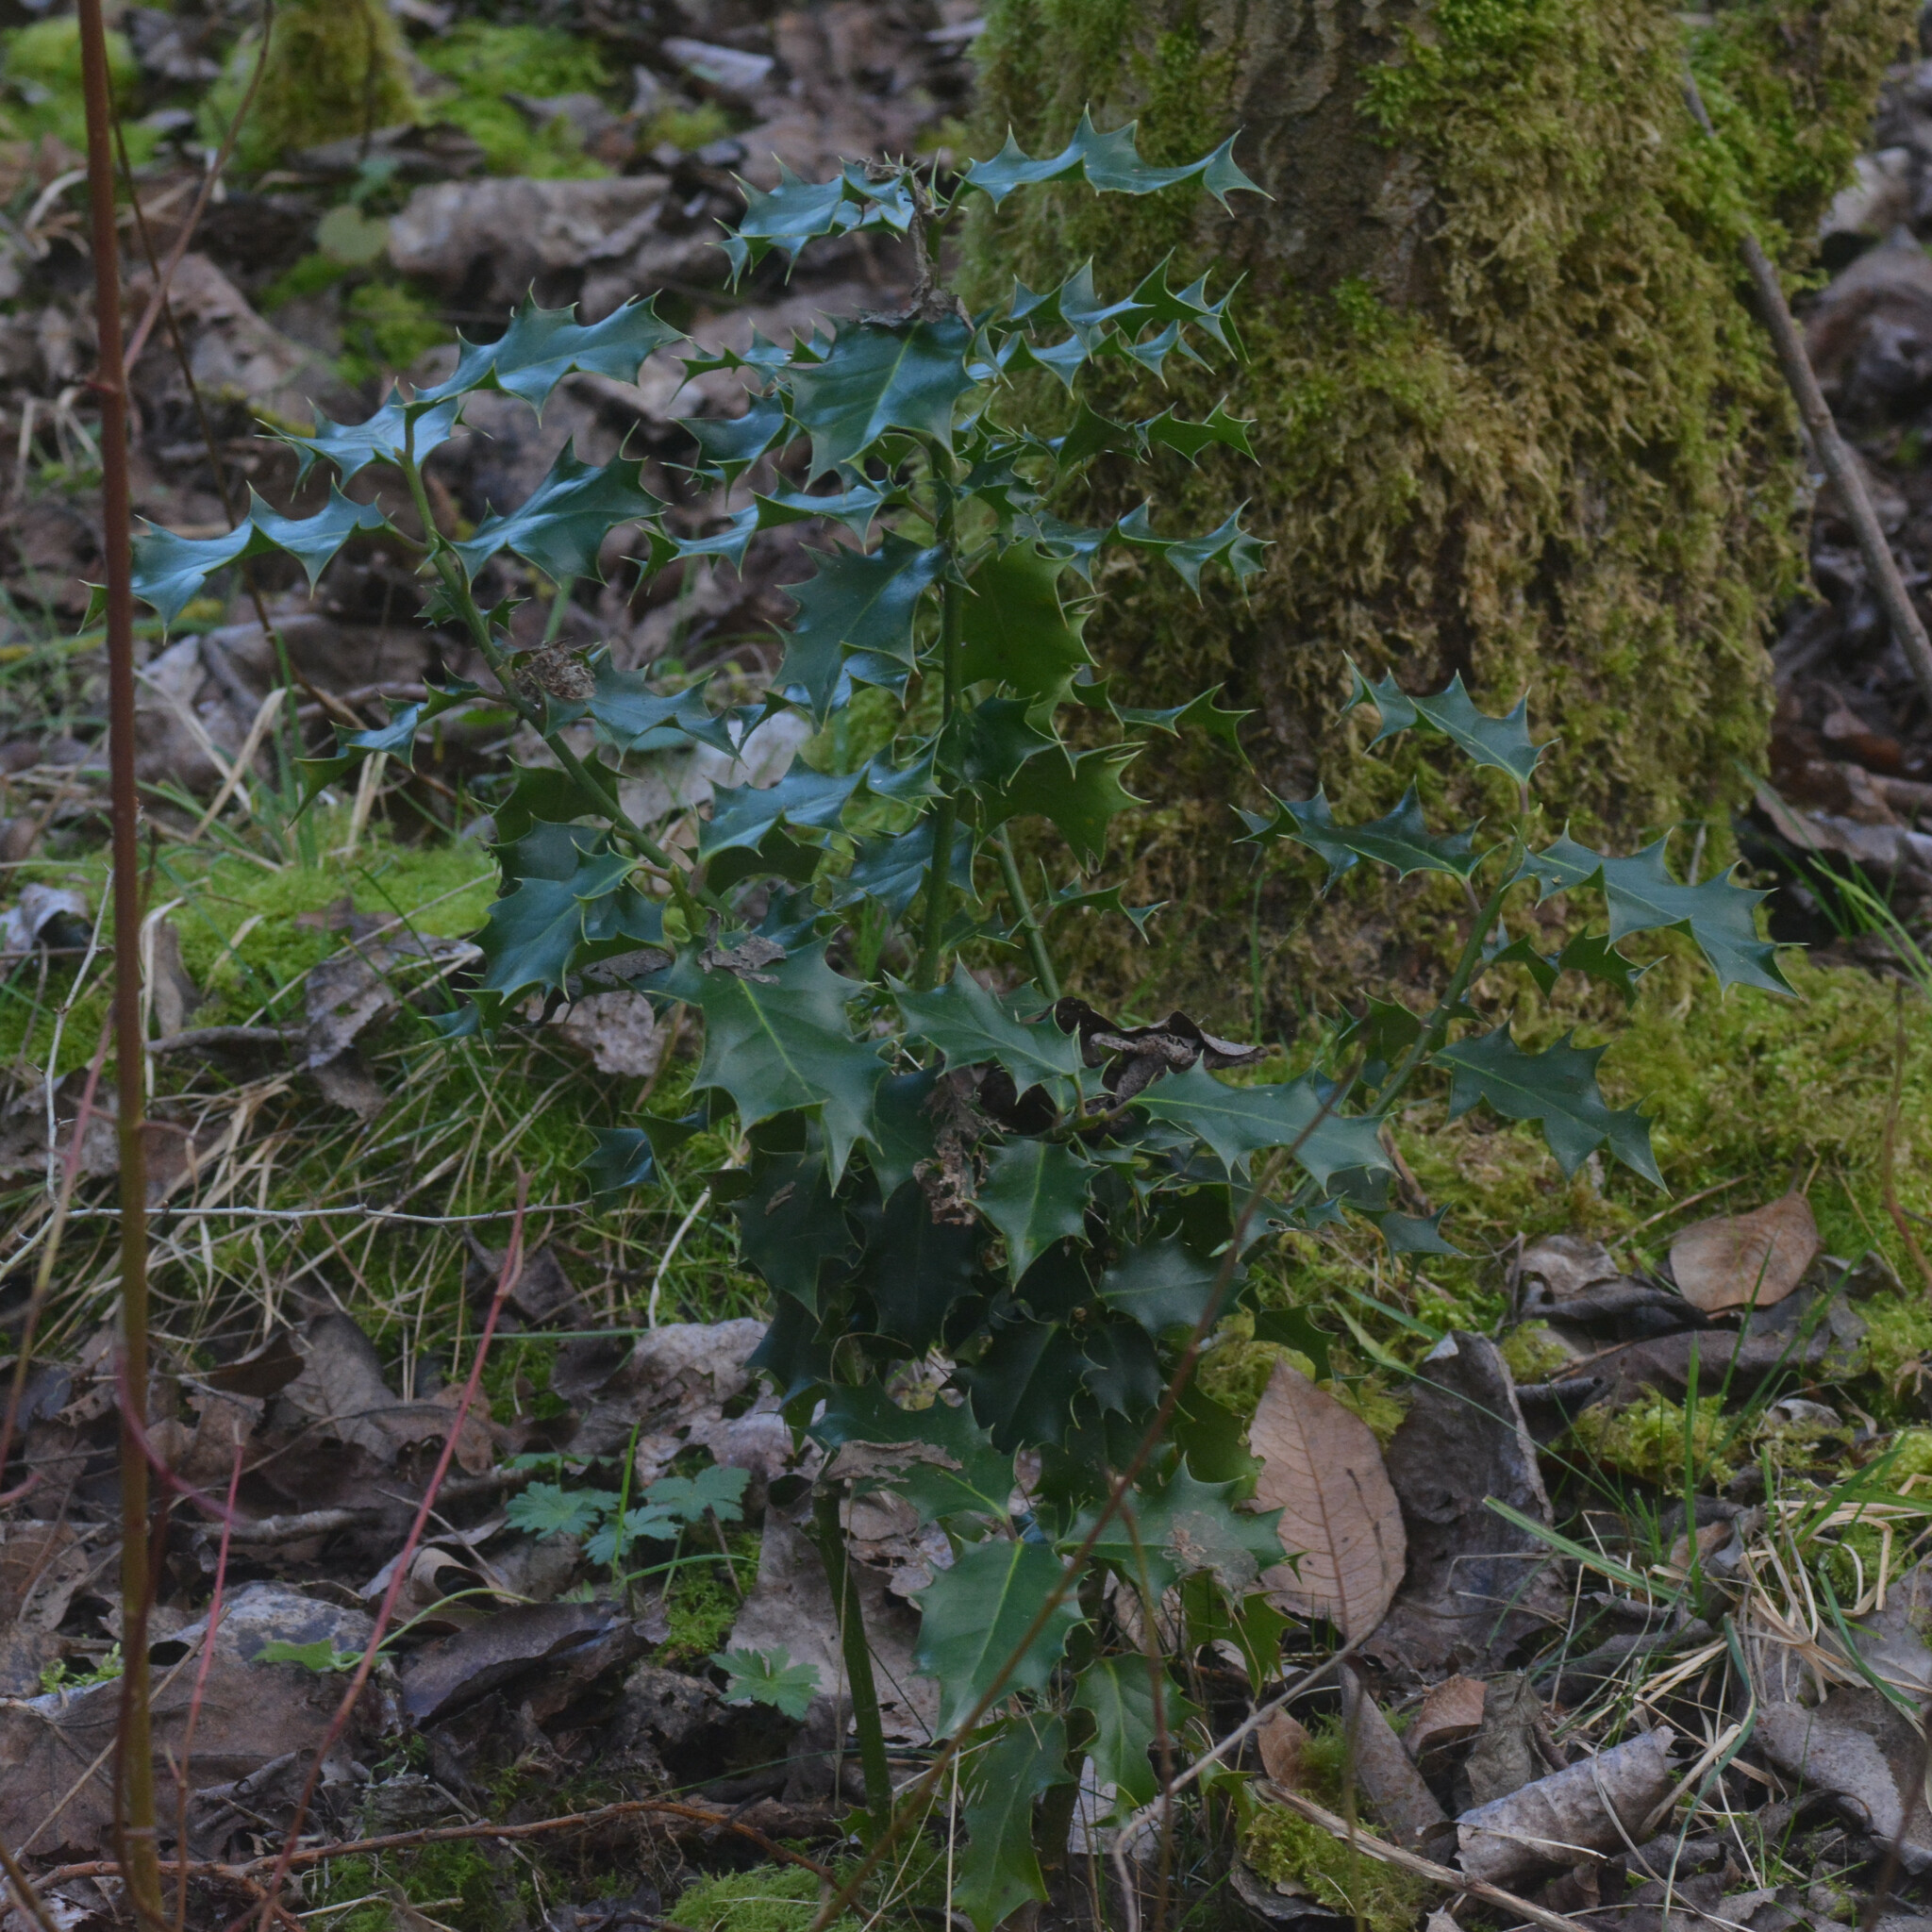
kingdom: Plantae
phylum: Tracheophyta
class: Magnoliopsida
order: Aquifoliales
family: Aquifoliaceae
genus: Ilex
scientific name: Ilex aquifolium
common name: English holly
